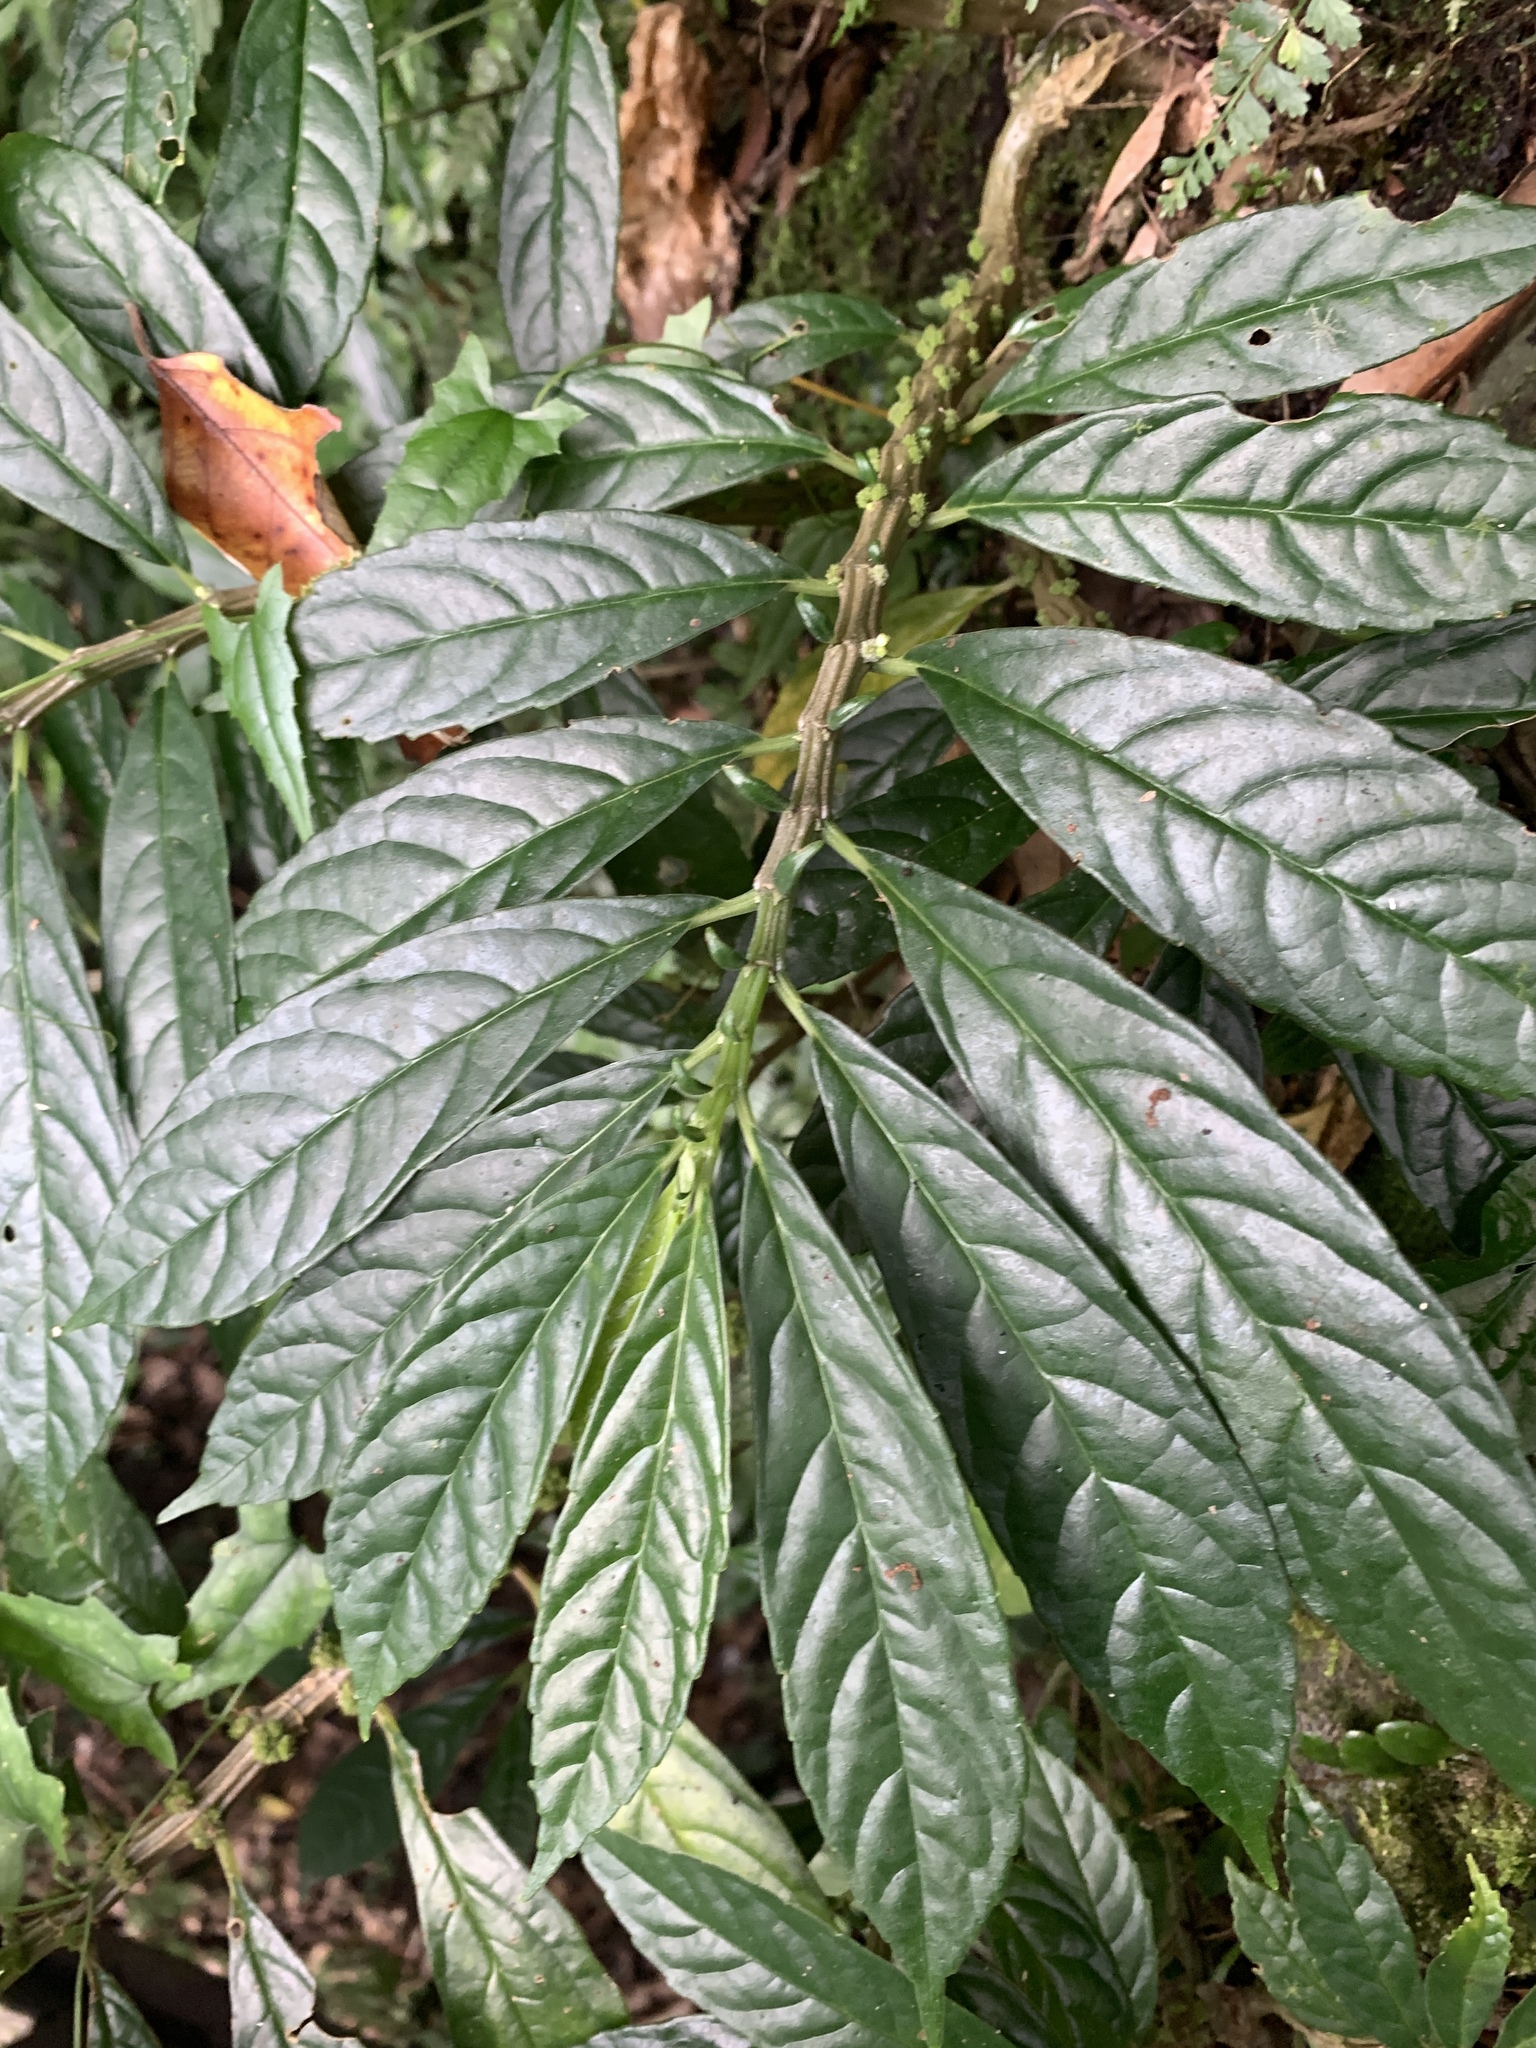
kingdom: Plantae
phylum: Tracheophyta
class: Magnoliopsida
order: Rosales
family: Urticaceae
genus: Procris
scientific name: Procris
